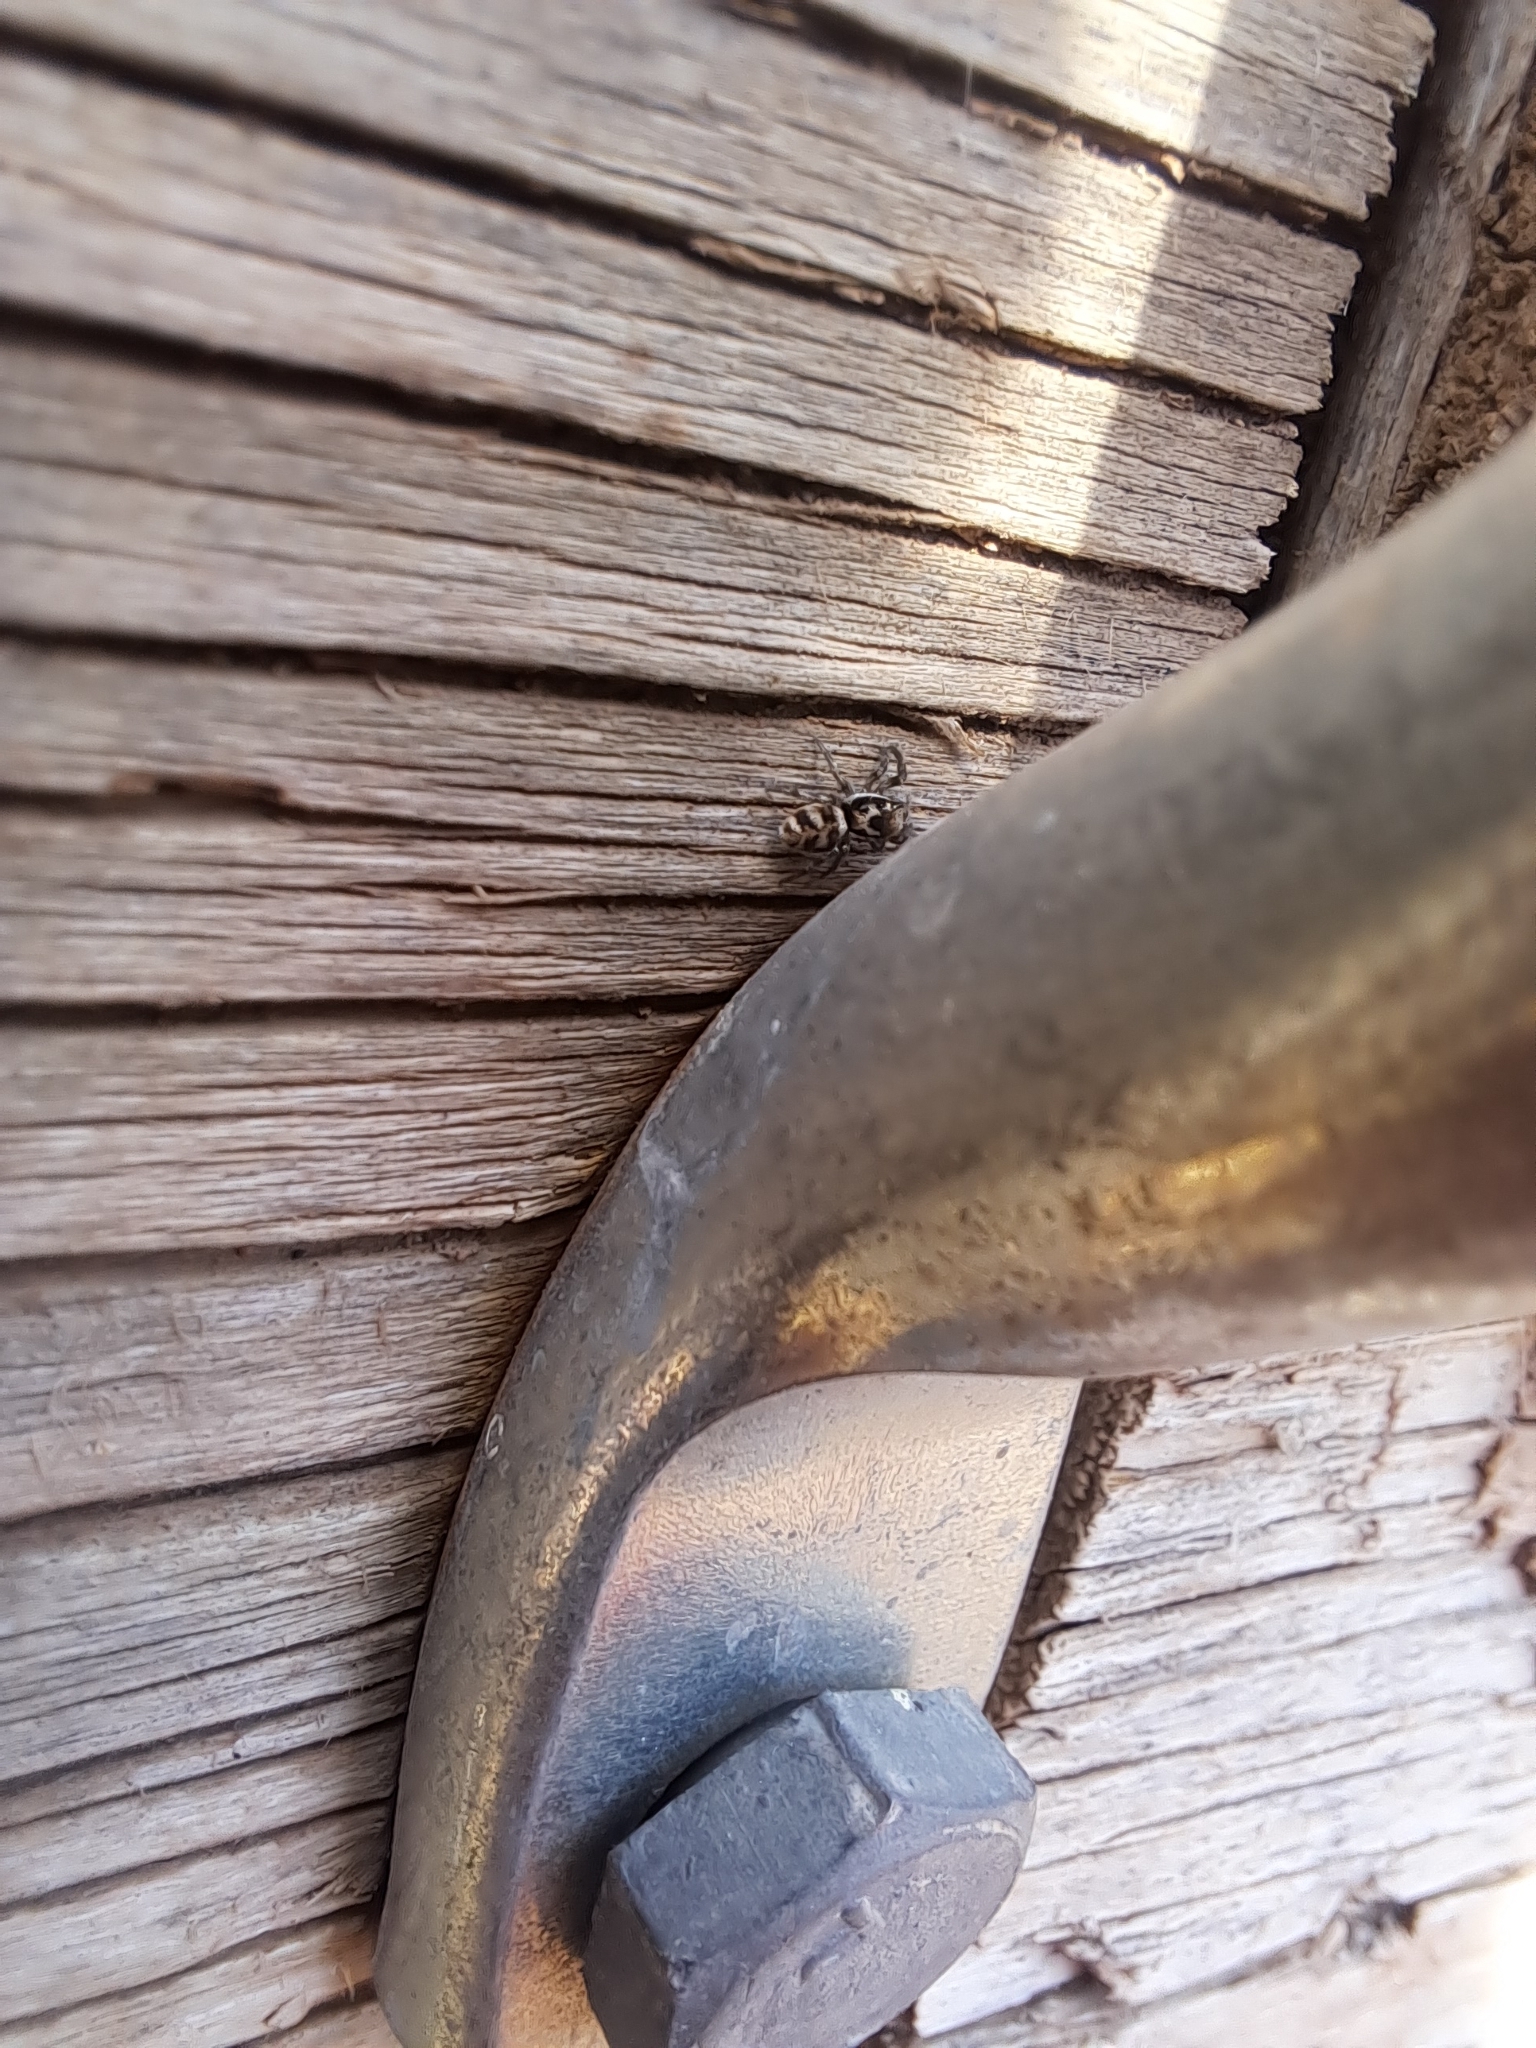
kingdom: Animalia
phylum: Arthropoda
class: Arachnida
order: Araneae
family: Salticidae
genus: Salticus
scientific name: Salticus scenicus
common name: Zebra jumper
